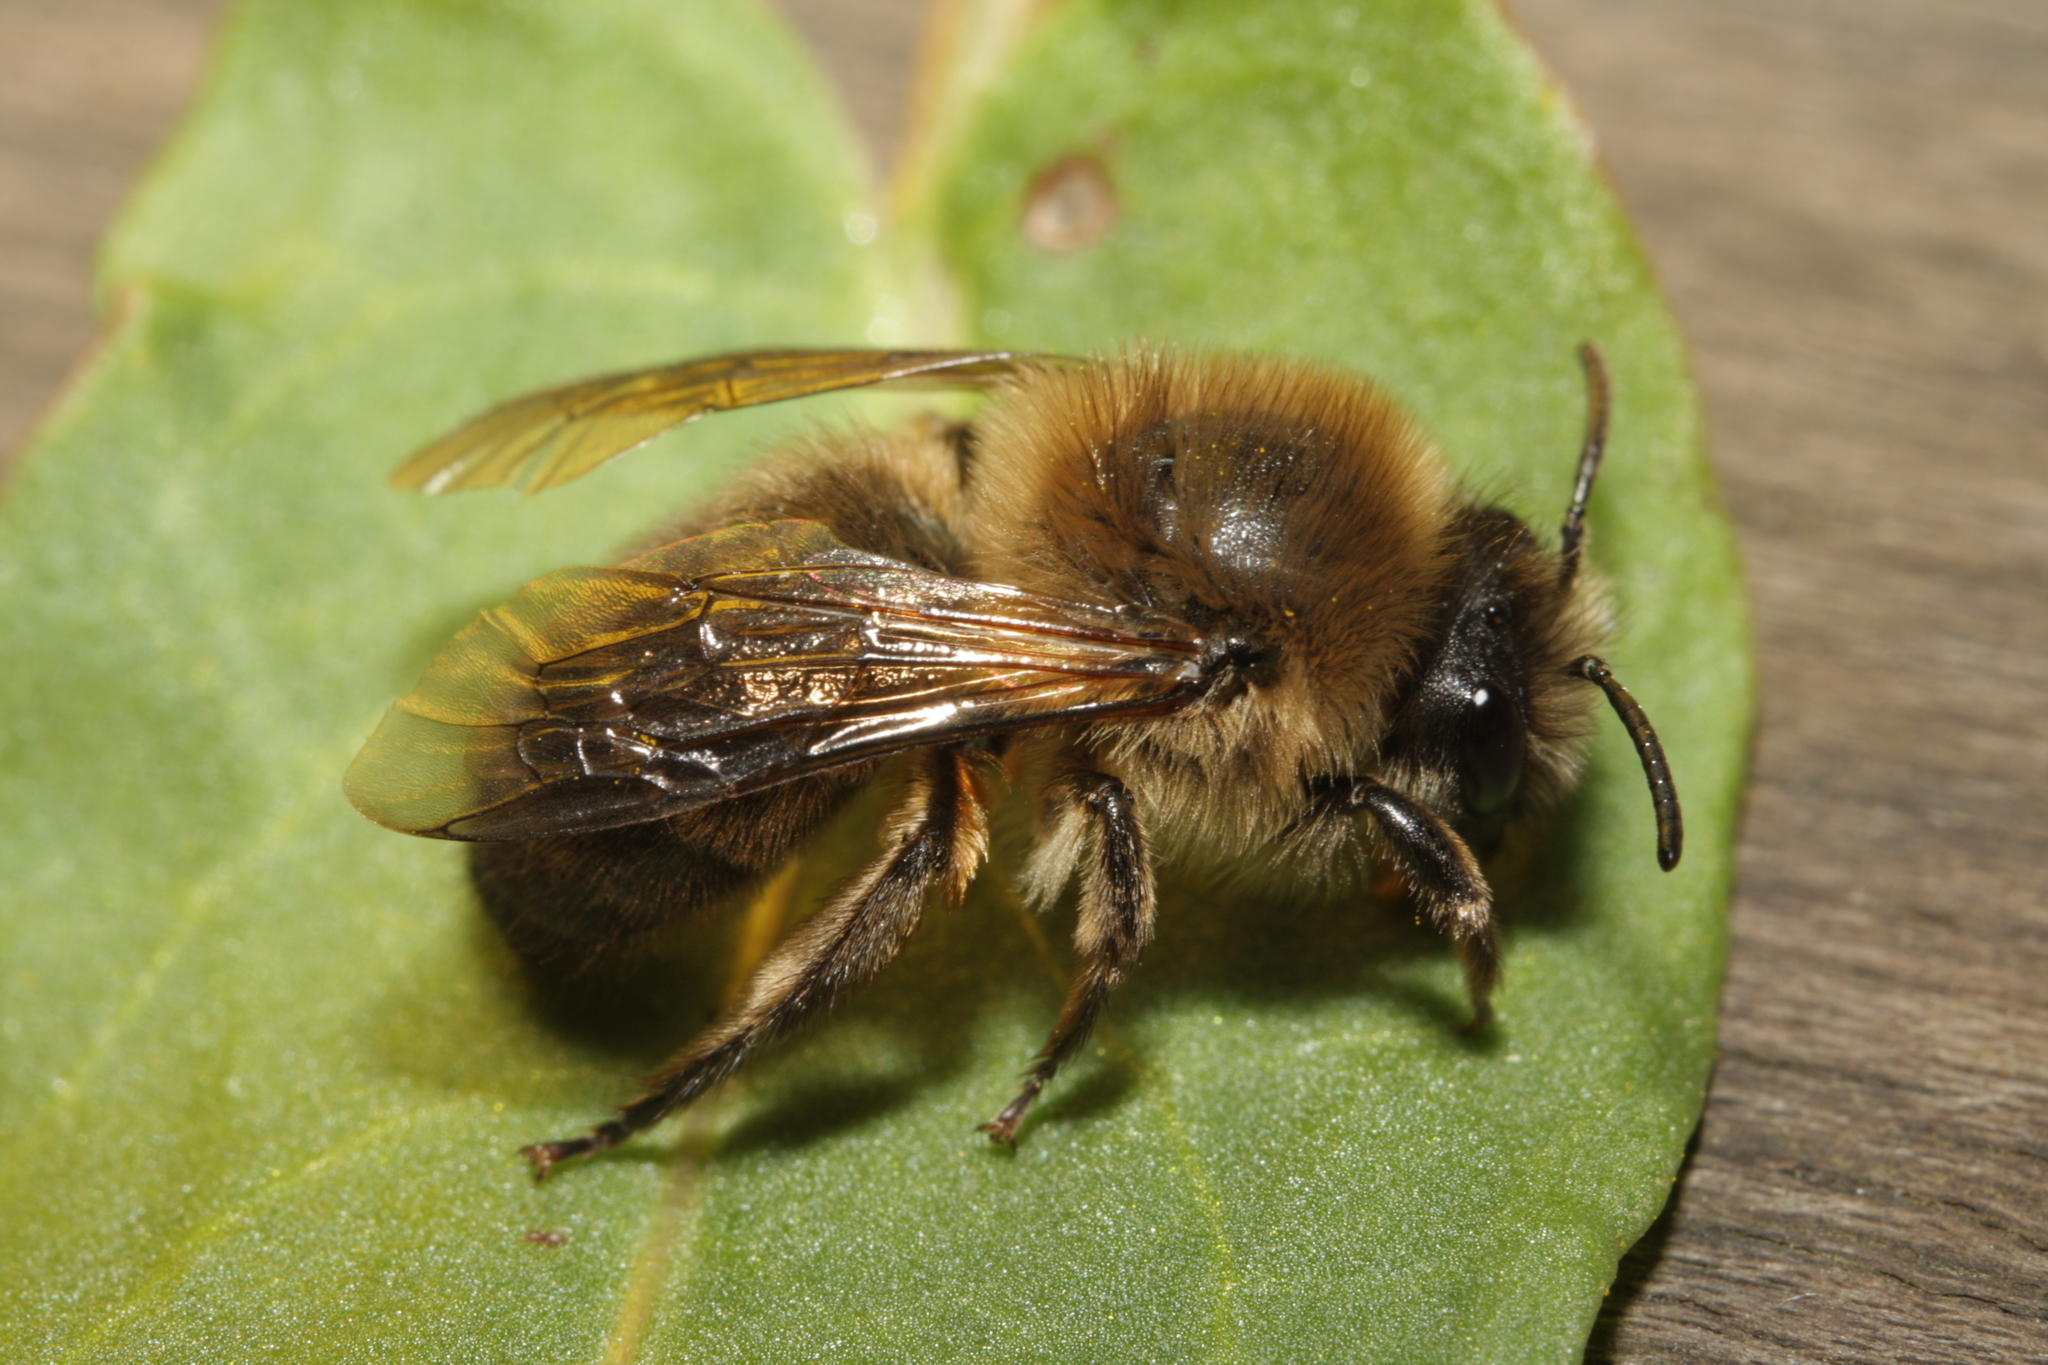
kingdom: Animalia
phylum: Arthropoda
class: Insecta
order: Hymenoptera
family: Colletidae
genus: Colletes
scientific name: Colletes cunicularius
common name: Early colletes
